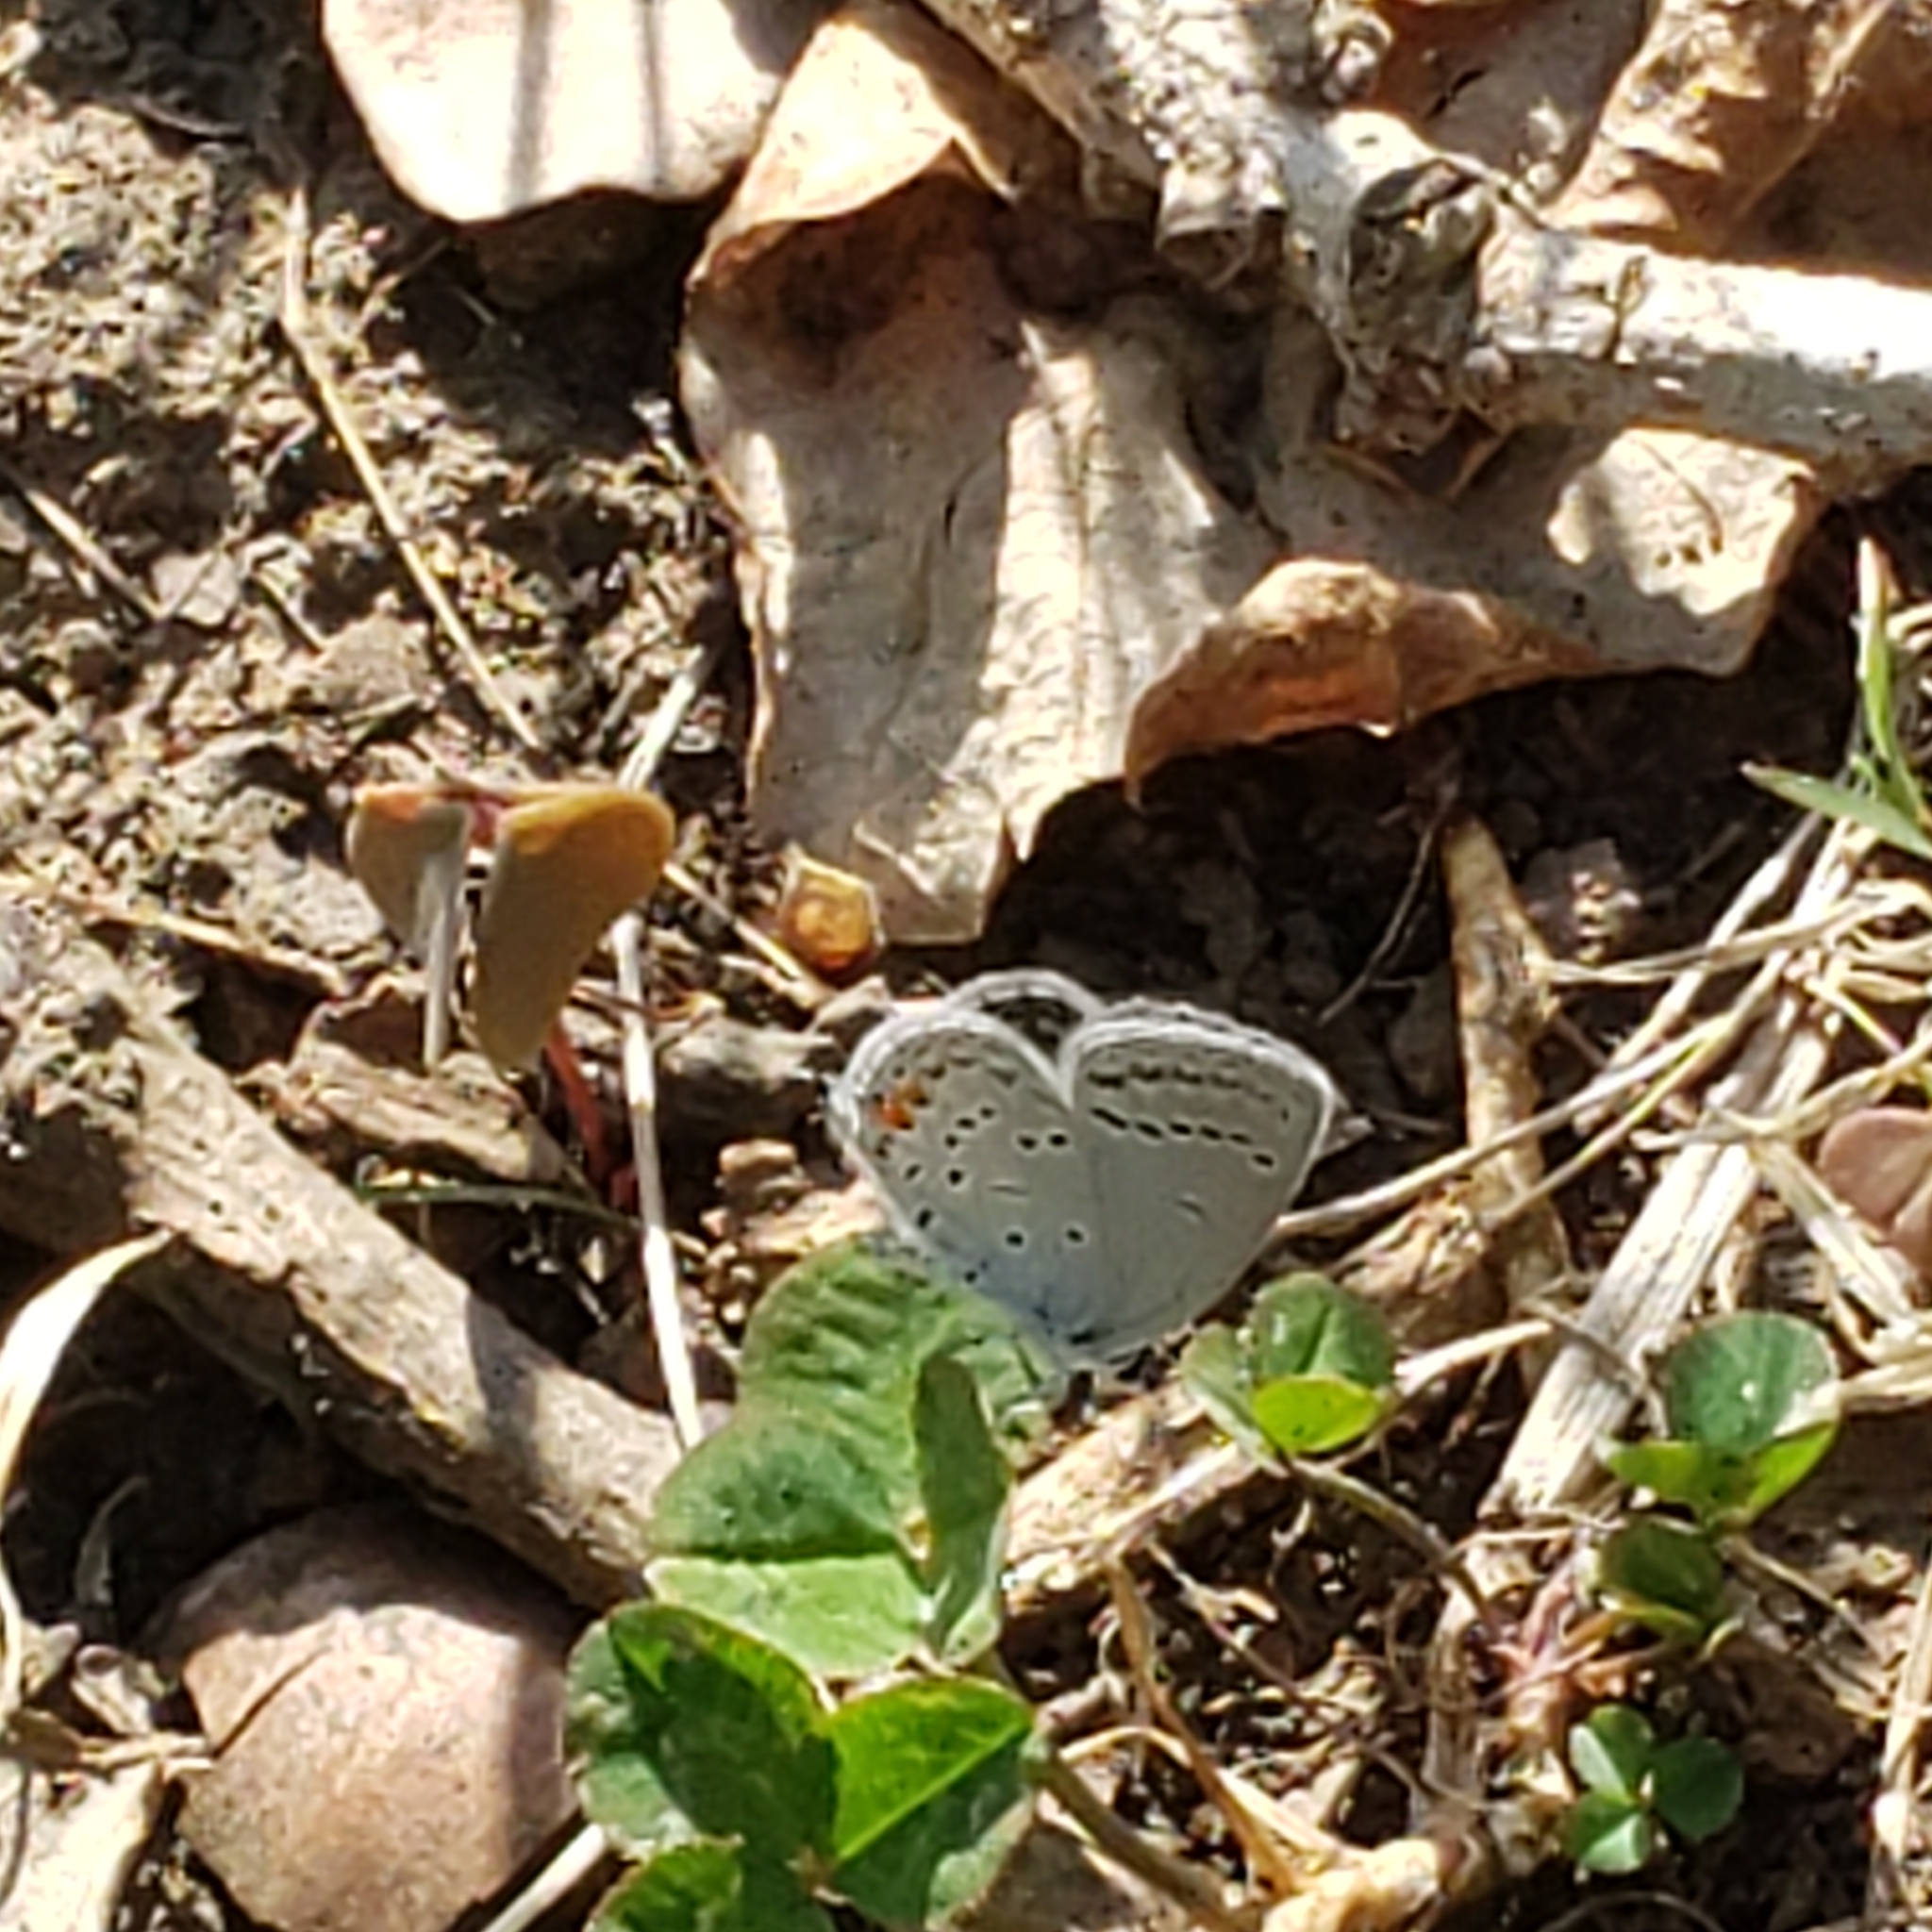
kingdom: Animalia
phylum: Arthropoda
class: Insecta
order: Lepidoptera
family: Lycaenidae
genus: Elkalyce
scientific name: Elkalyce comyntas
